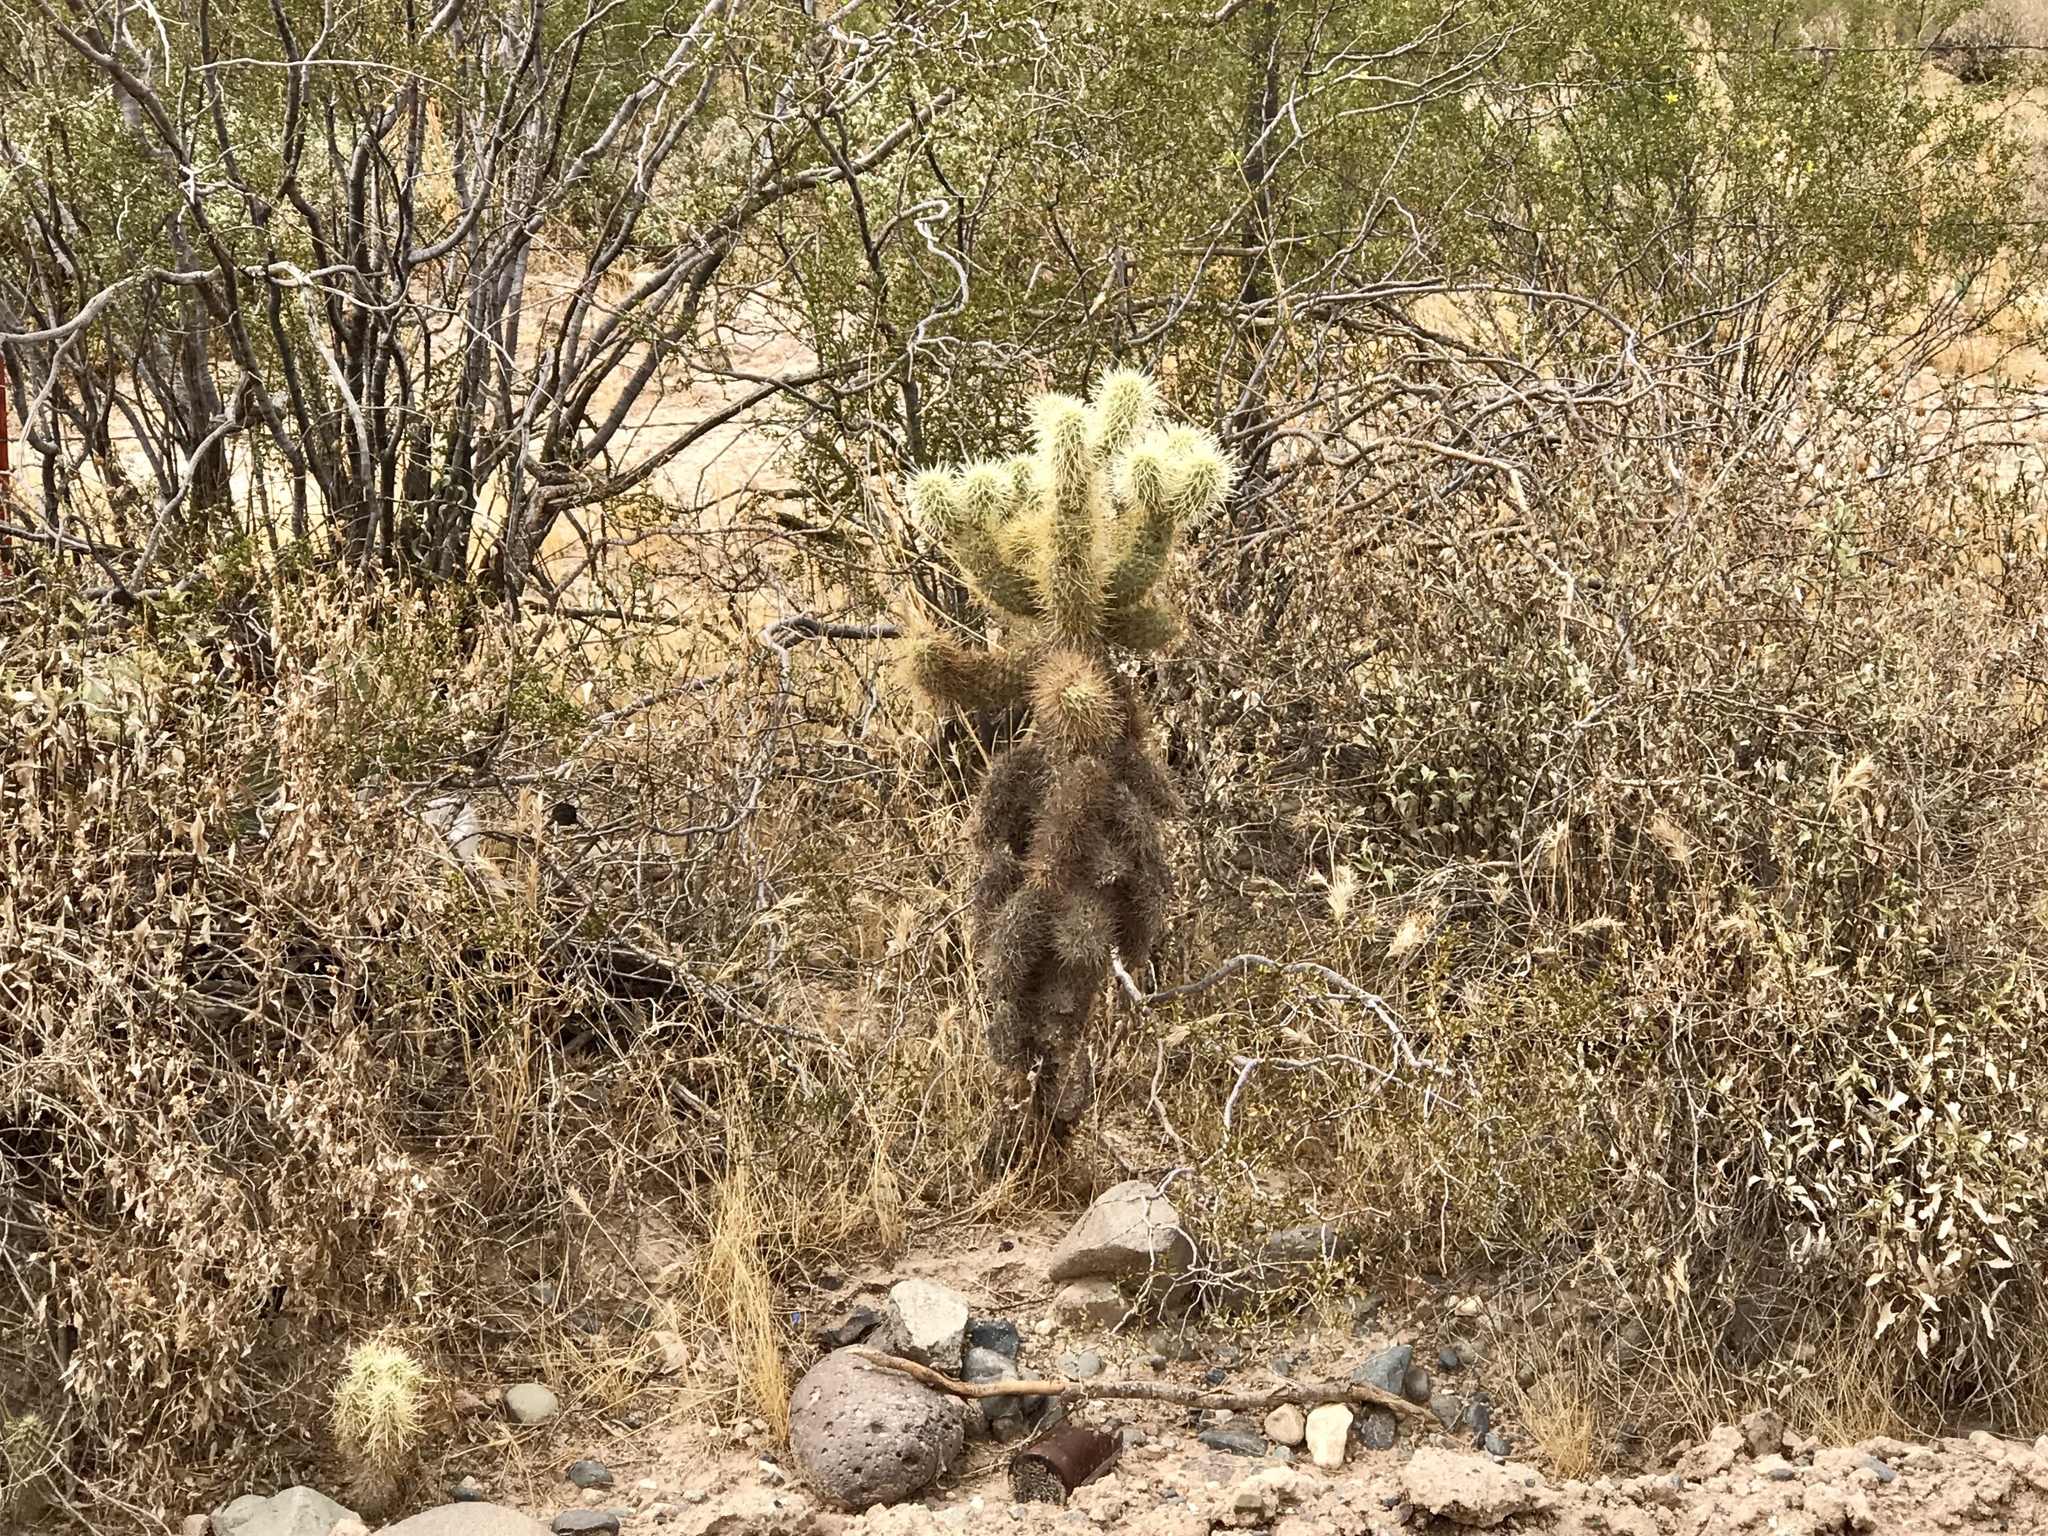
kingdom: Plantae
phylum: Tracheophyta
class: Magnoliopsida
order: Caryophyllales
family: Cactaceae
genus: Cylindropuntia
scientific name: Cylindropuntia fosbergii
